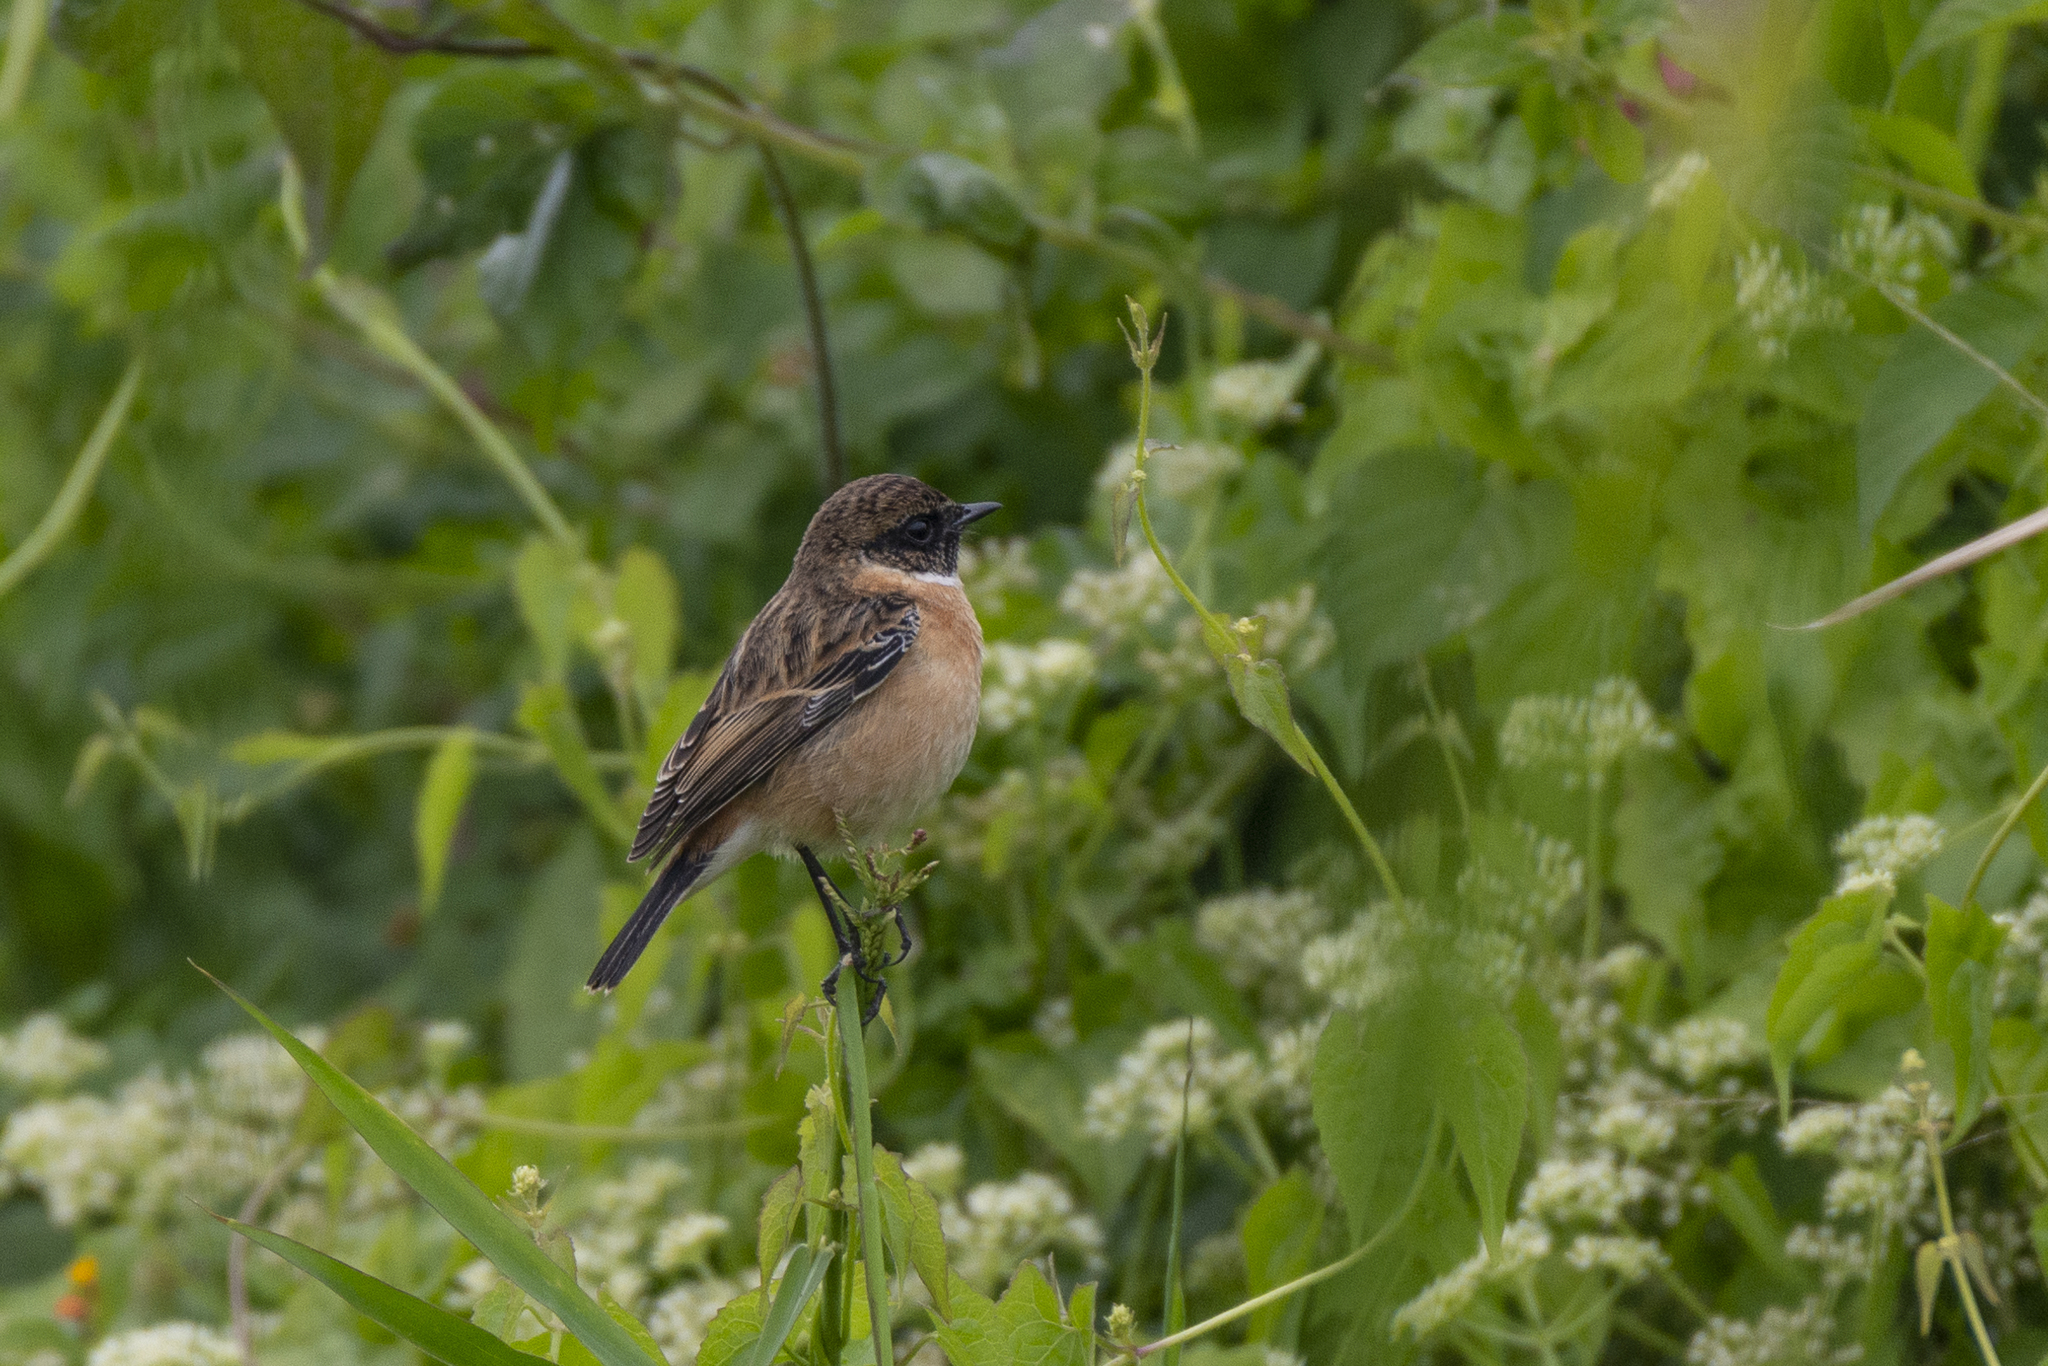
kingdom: Animalia
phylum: Chordata
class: Aves
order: Passeriformes
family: Muscicapidae
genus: Saxicola
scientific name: Saxicola stejnegeri
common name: Stejneger's stonechat
